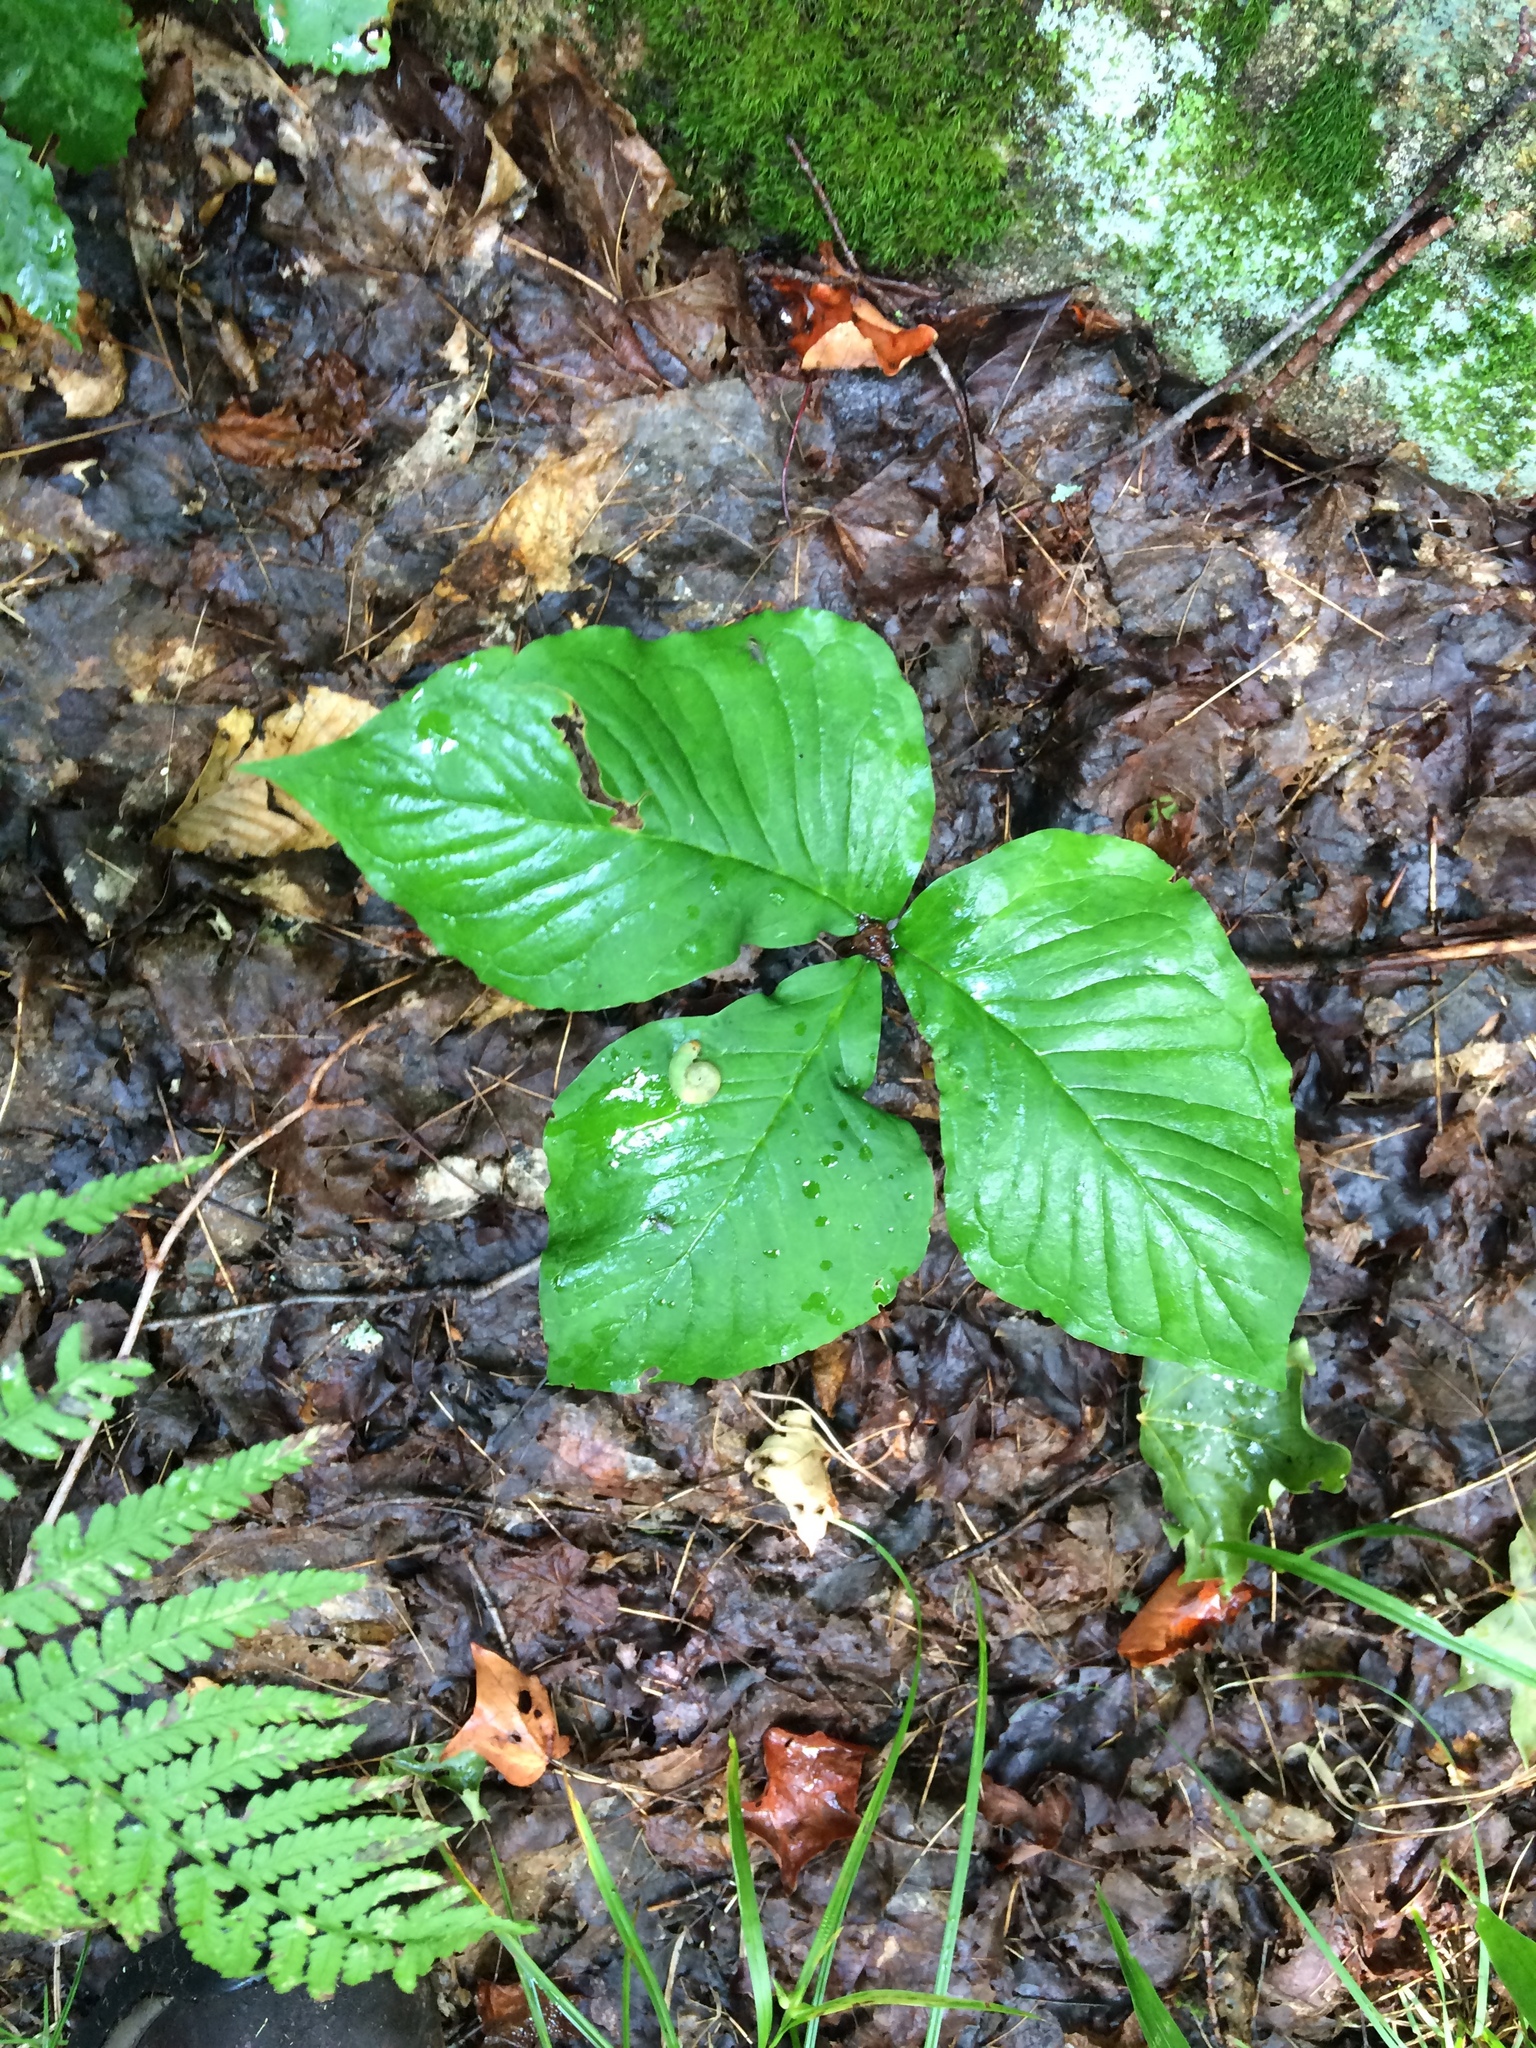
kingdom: Plantae
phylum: Tracheophyta
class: Liliopsida
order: Alismatales
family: Araceae
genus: Arisaema
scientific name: Arisaema triphyllum
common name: Jack-in-the-pulpit
